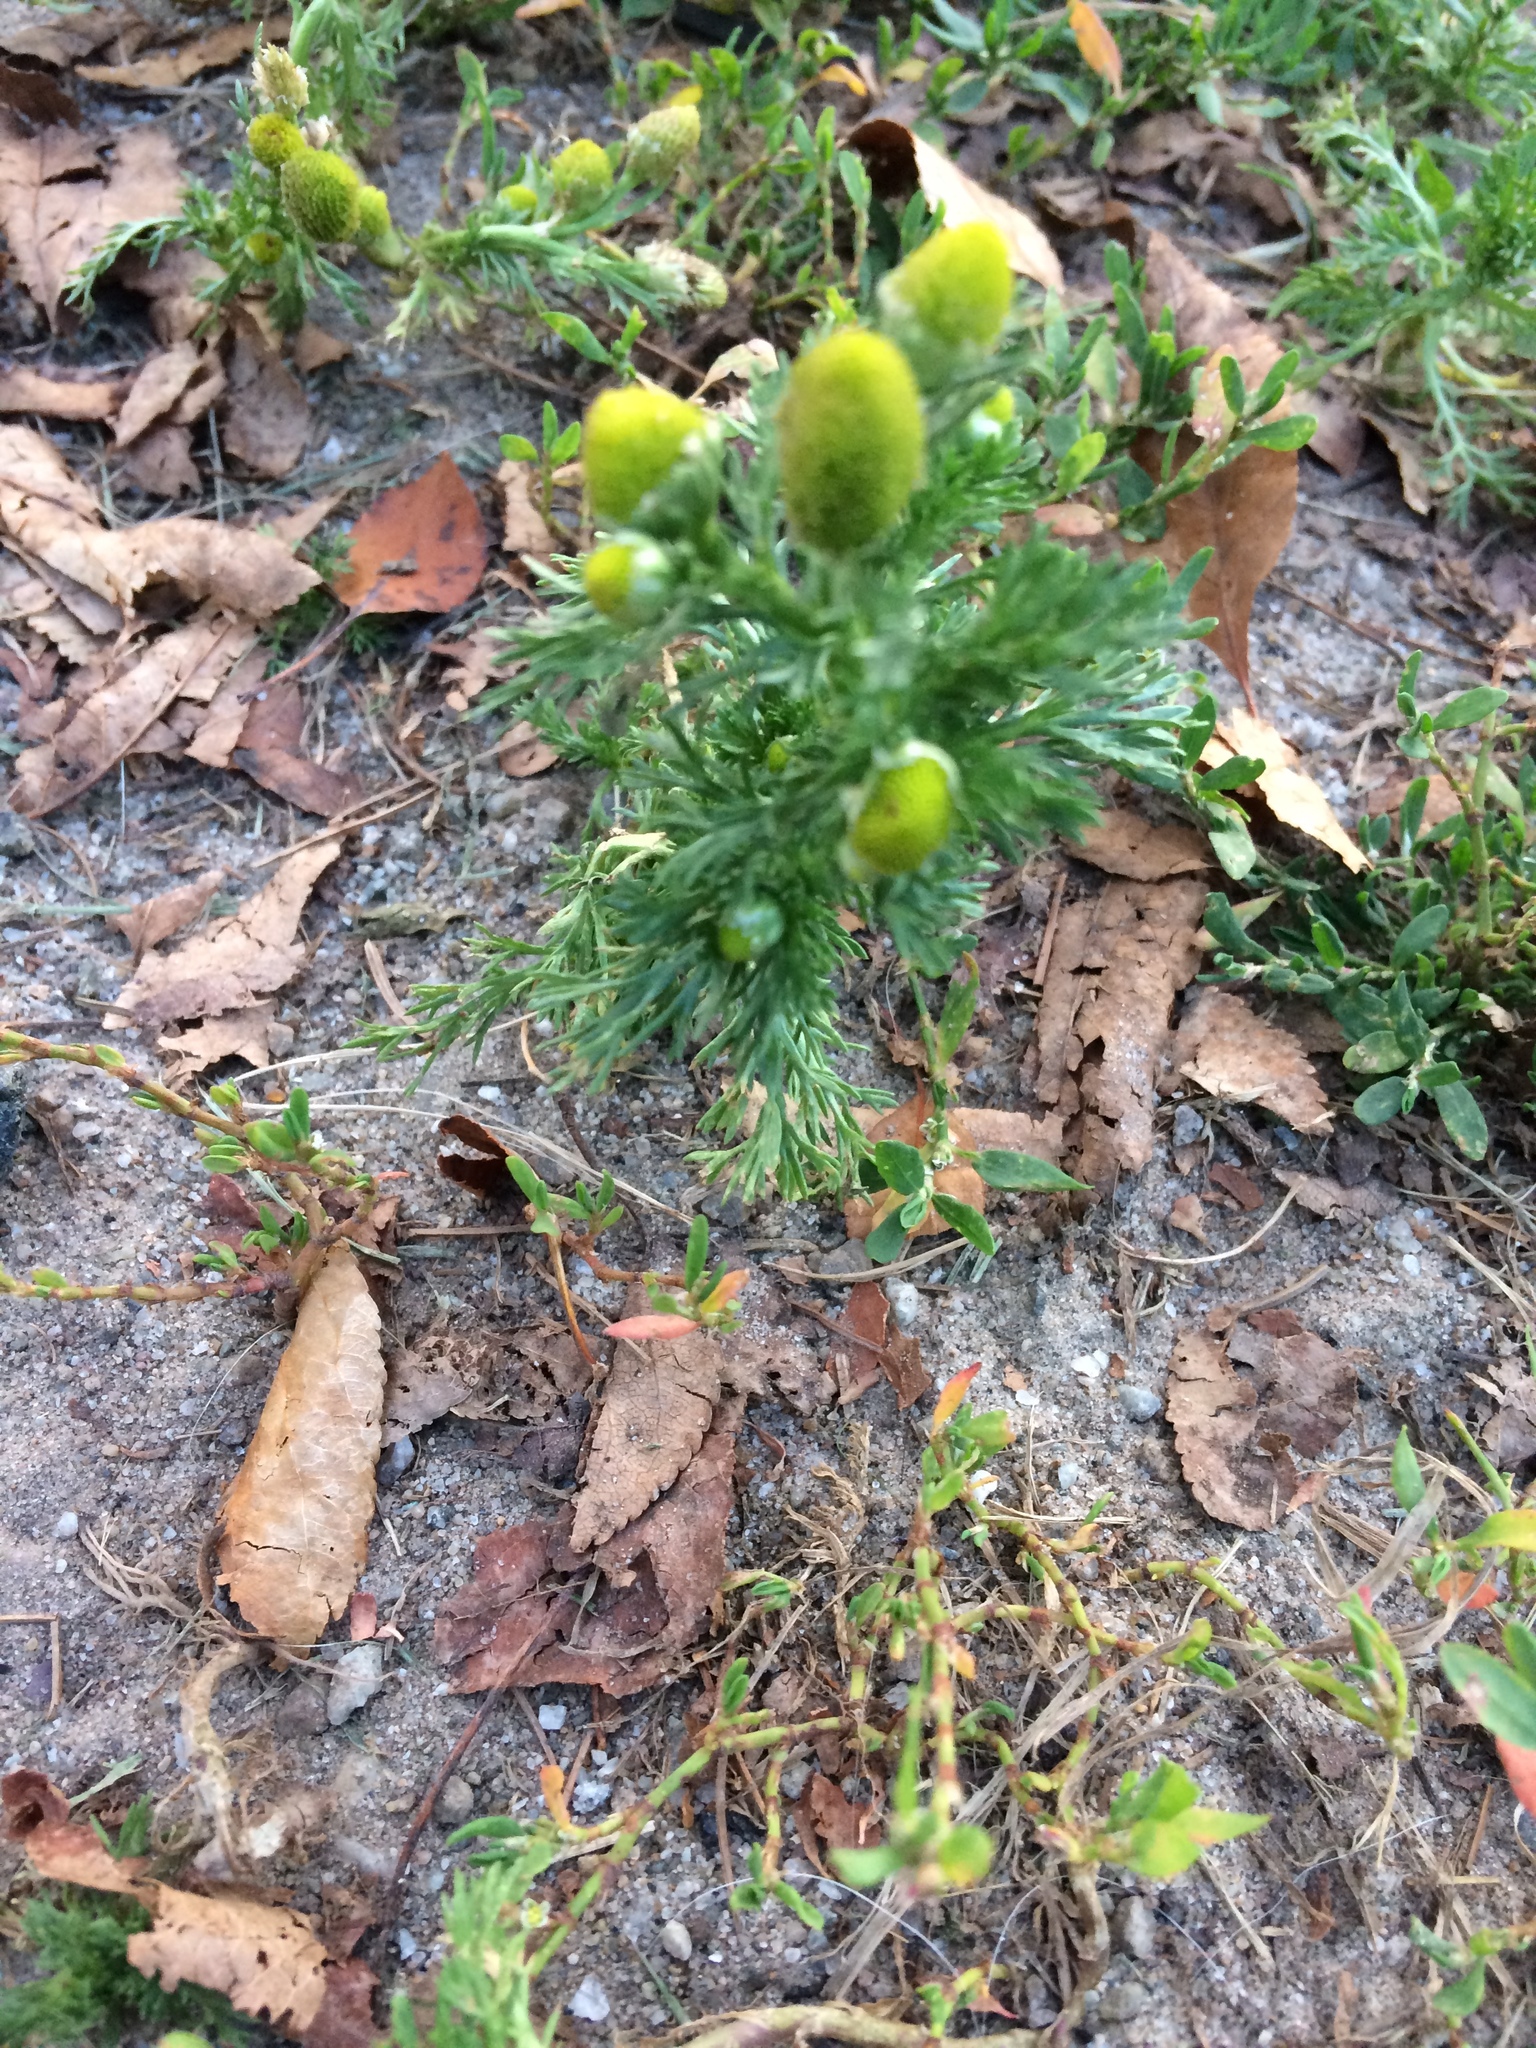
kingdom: Plantae
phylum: Tracheophyta
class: Magnoliopsida
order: Asterales
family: Asteraceae
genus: Matricaria
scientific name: Matricaria discoidea
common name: Disc mayweed
